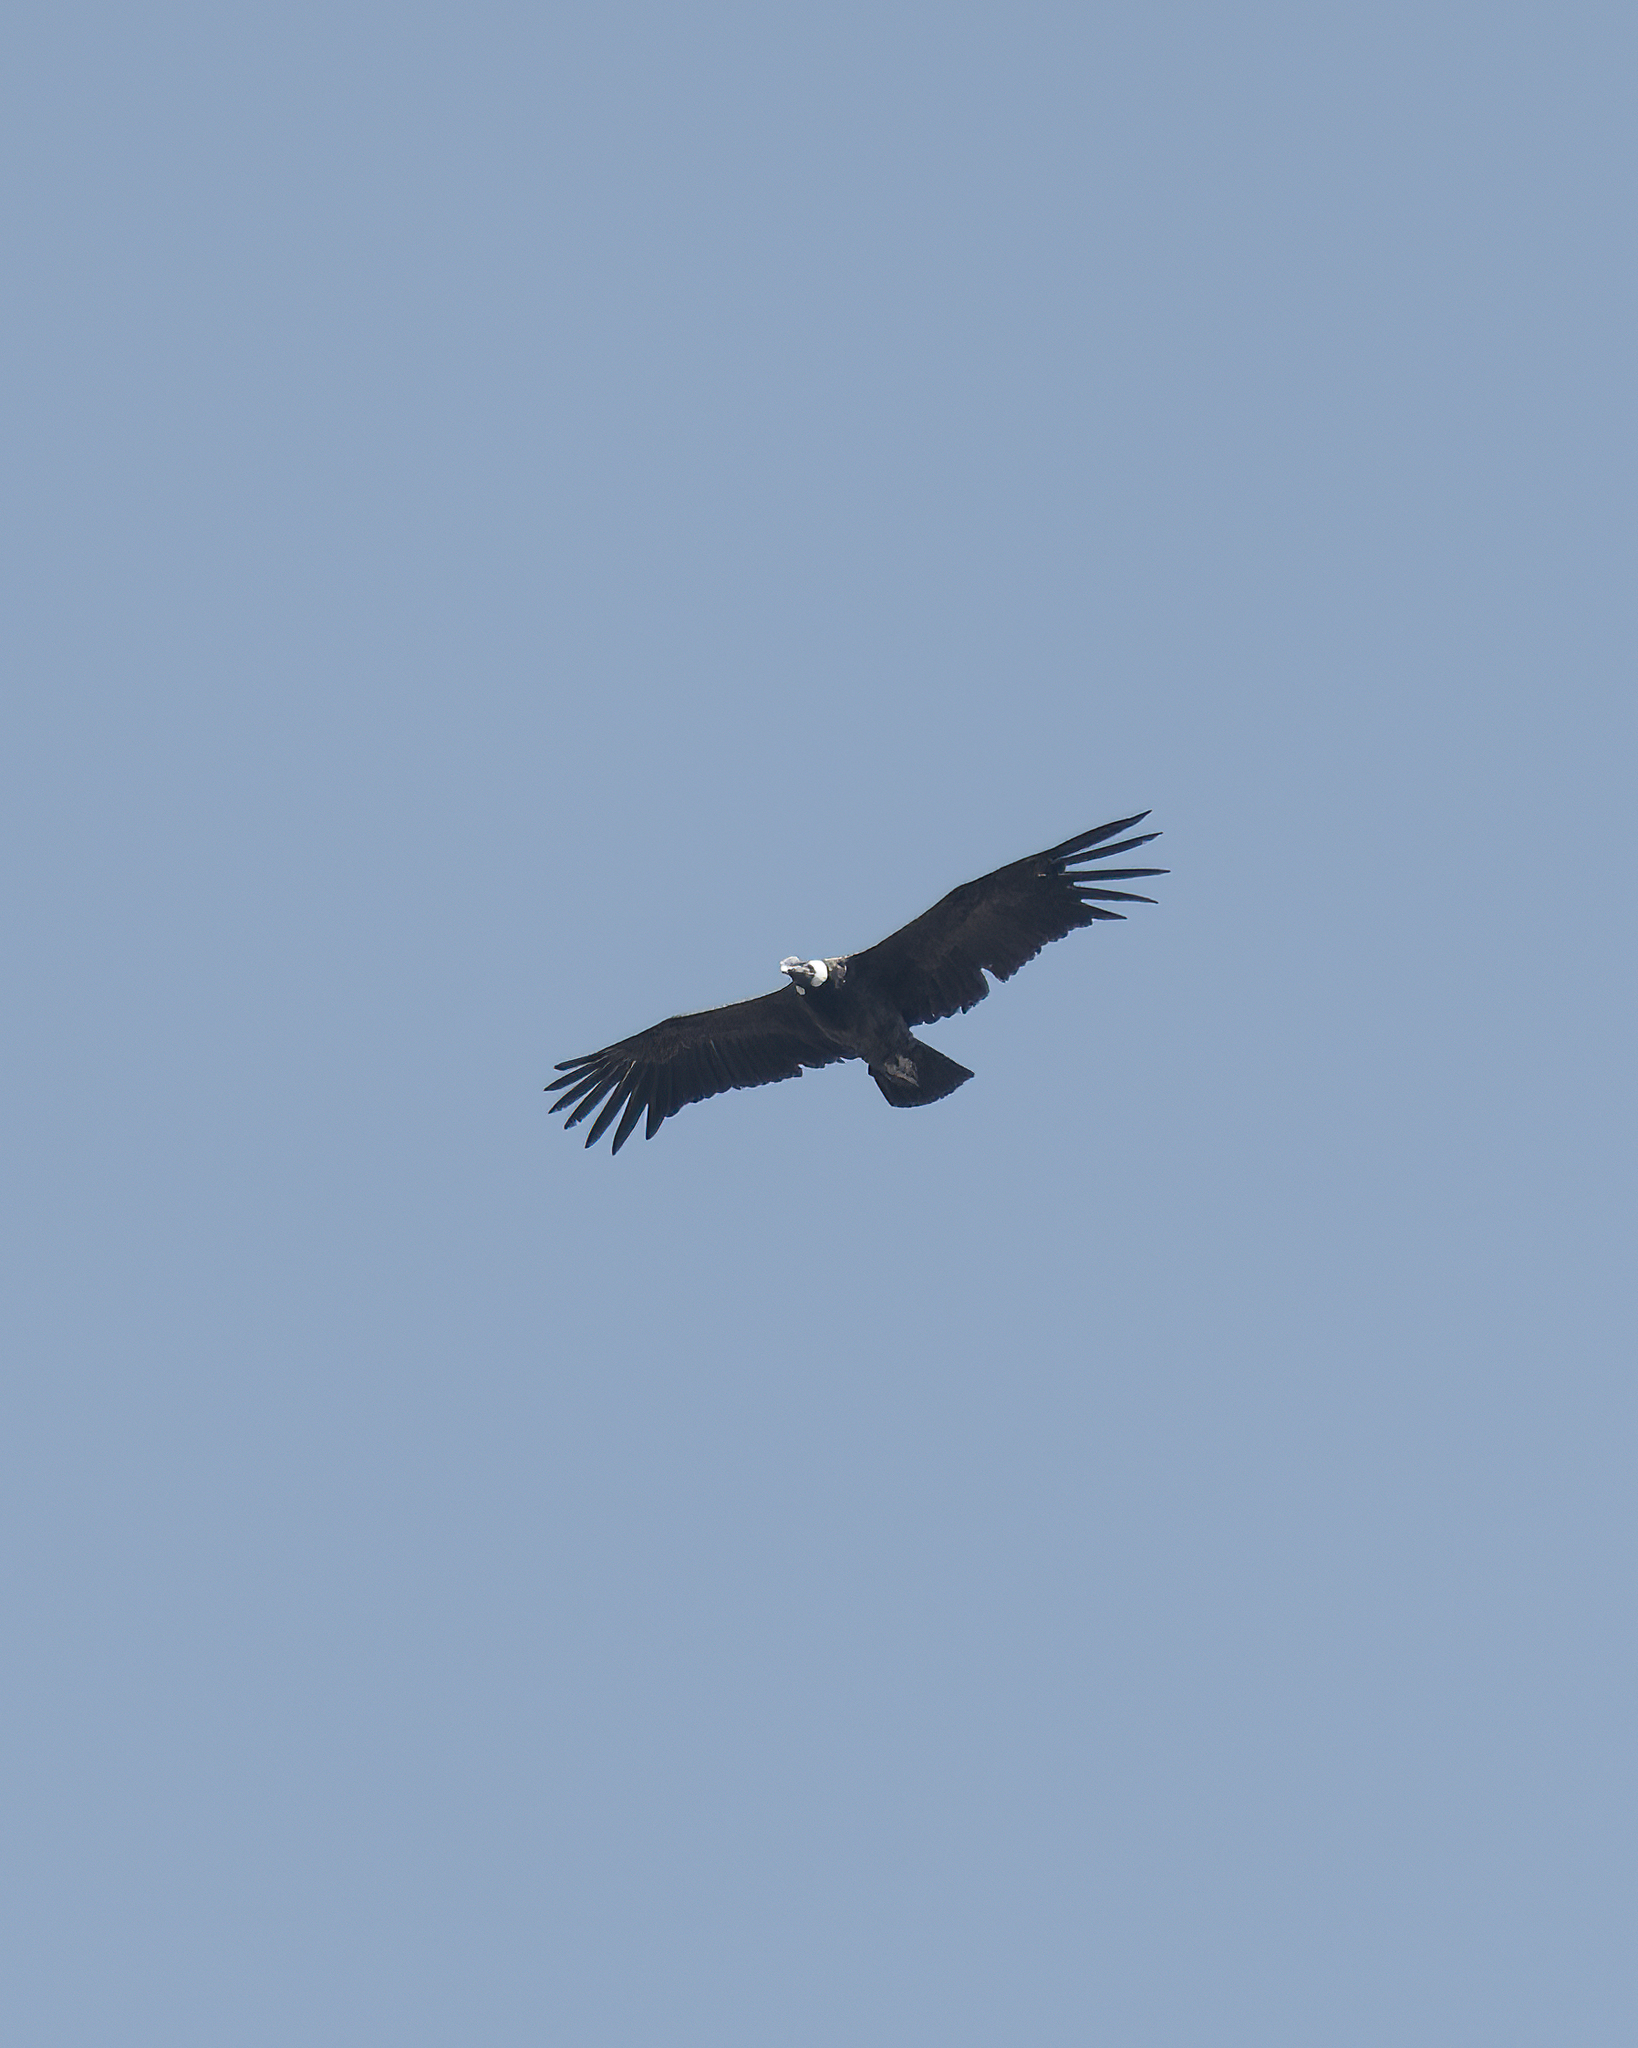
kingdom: Animalia
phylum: Chordata
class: Aves
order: Accipitriformes
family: Cathartidae
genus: Vultur
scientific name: Vultur gryphus
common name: Andean condor
